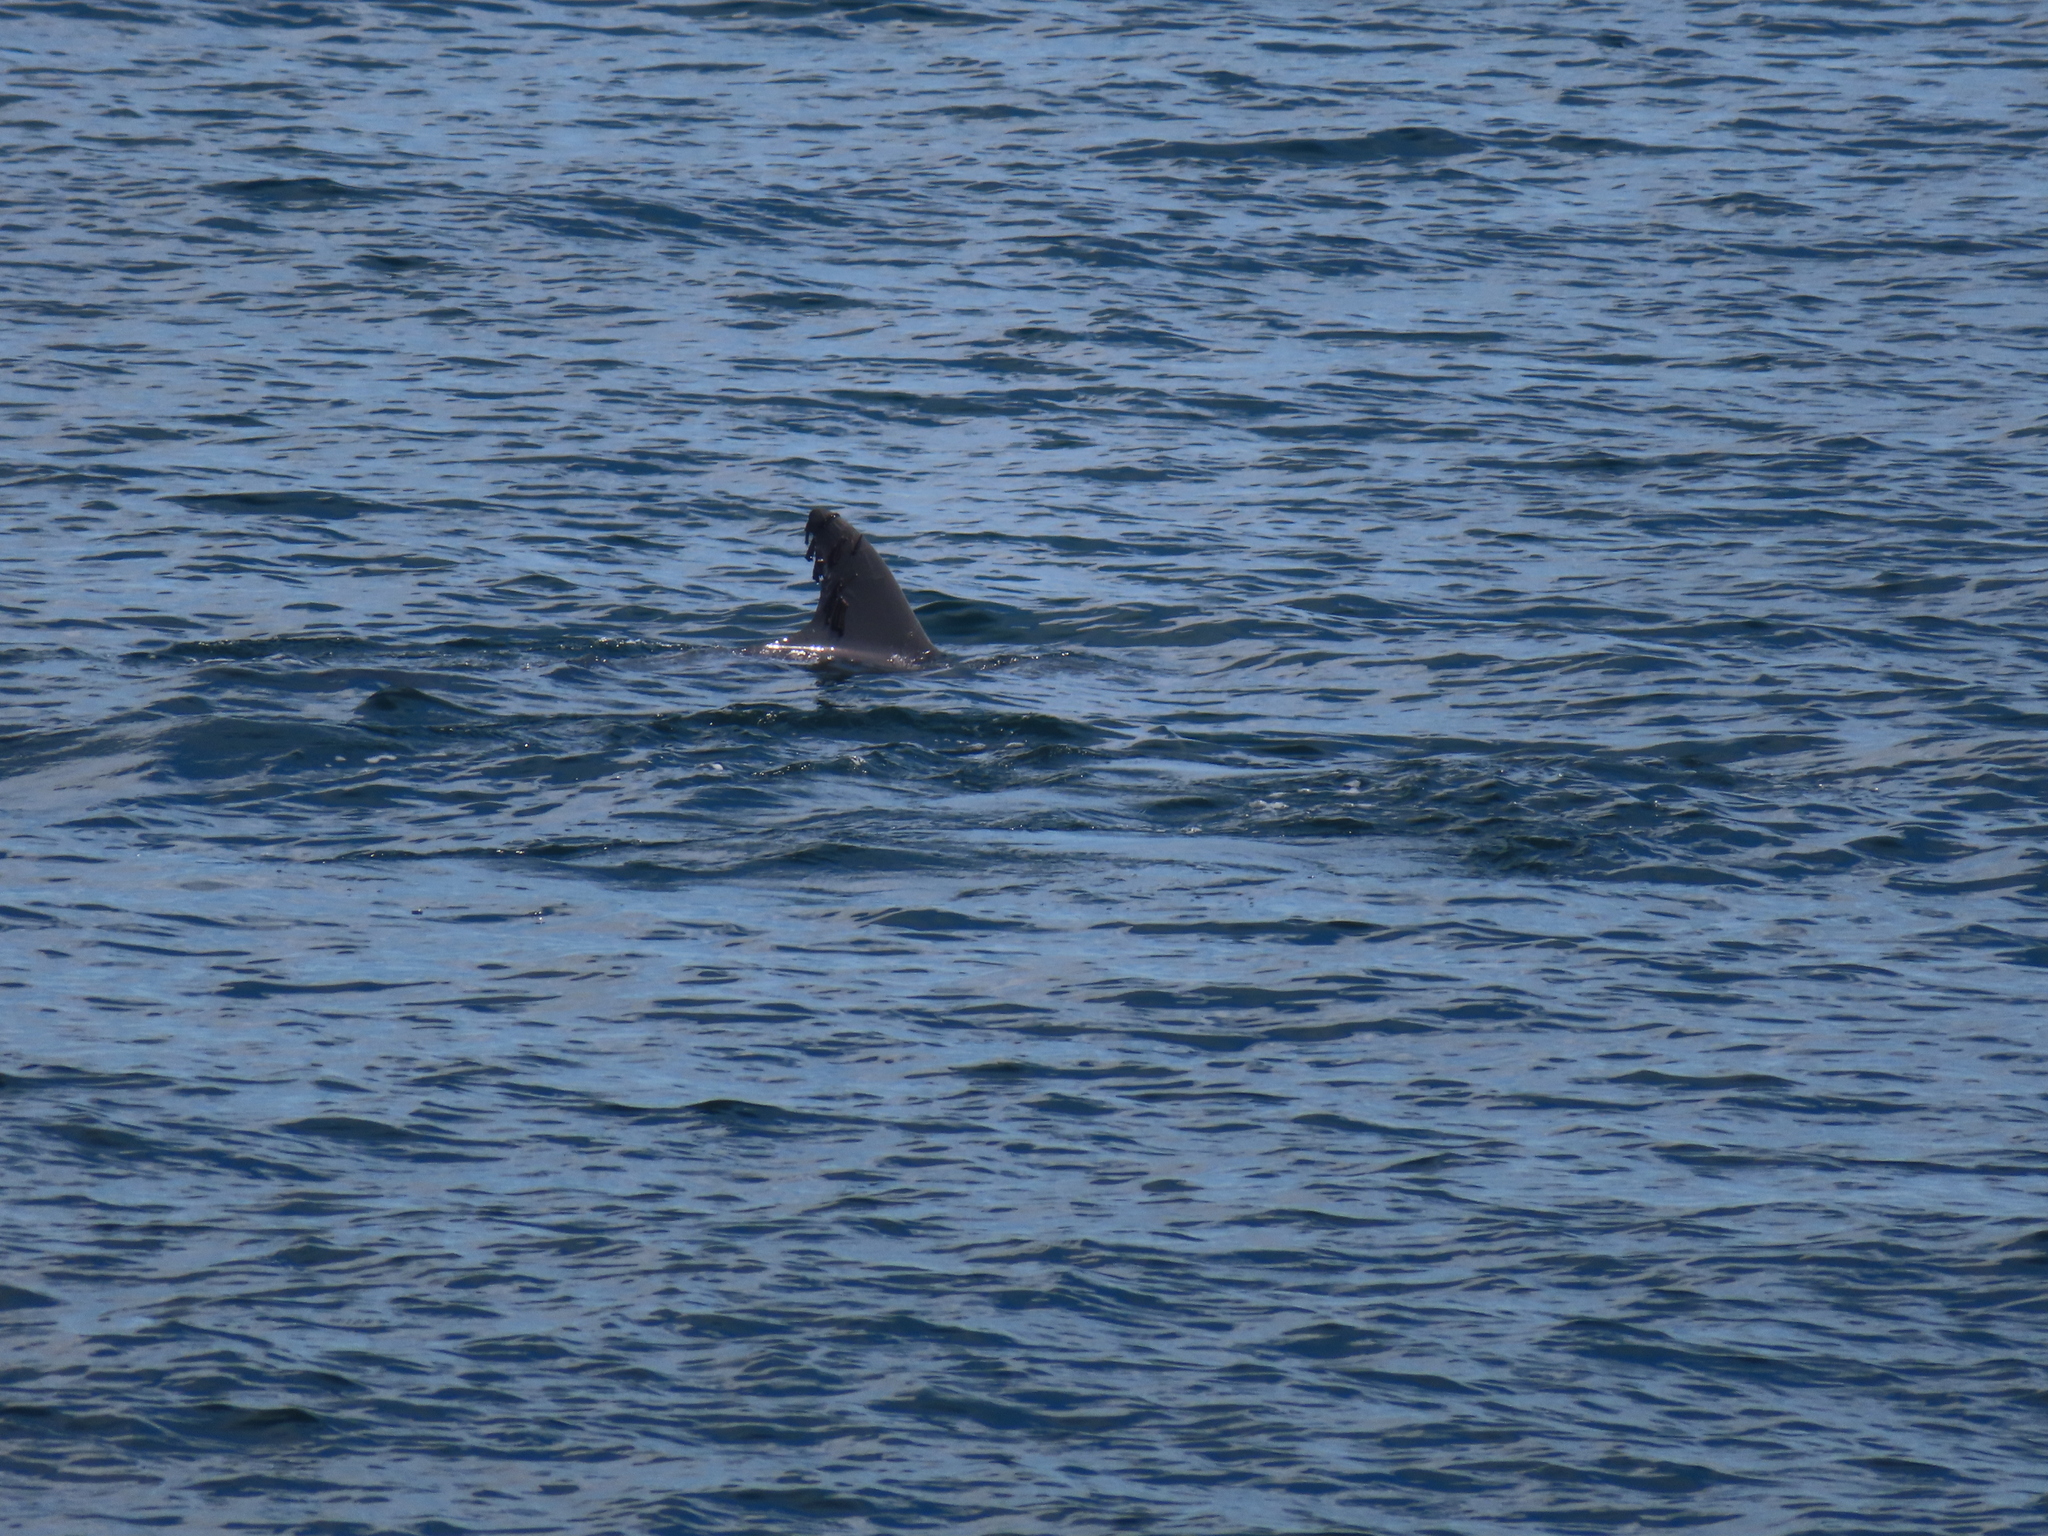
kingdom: Animalia
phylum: Chordata
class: Mammalia
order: Cetacea
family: Delphinidae
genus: Tursiops
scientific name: Tursiops truncatus
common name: Bottlenose dolphin
